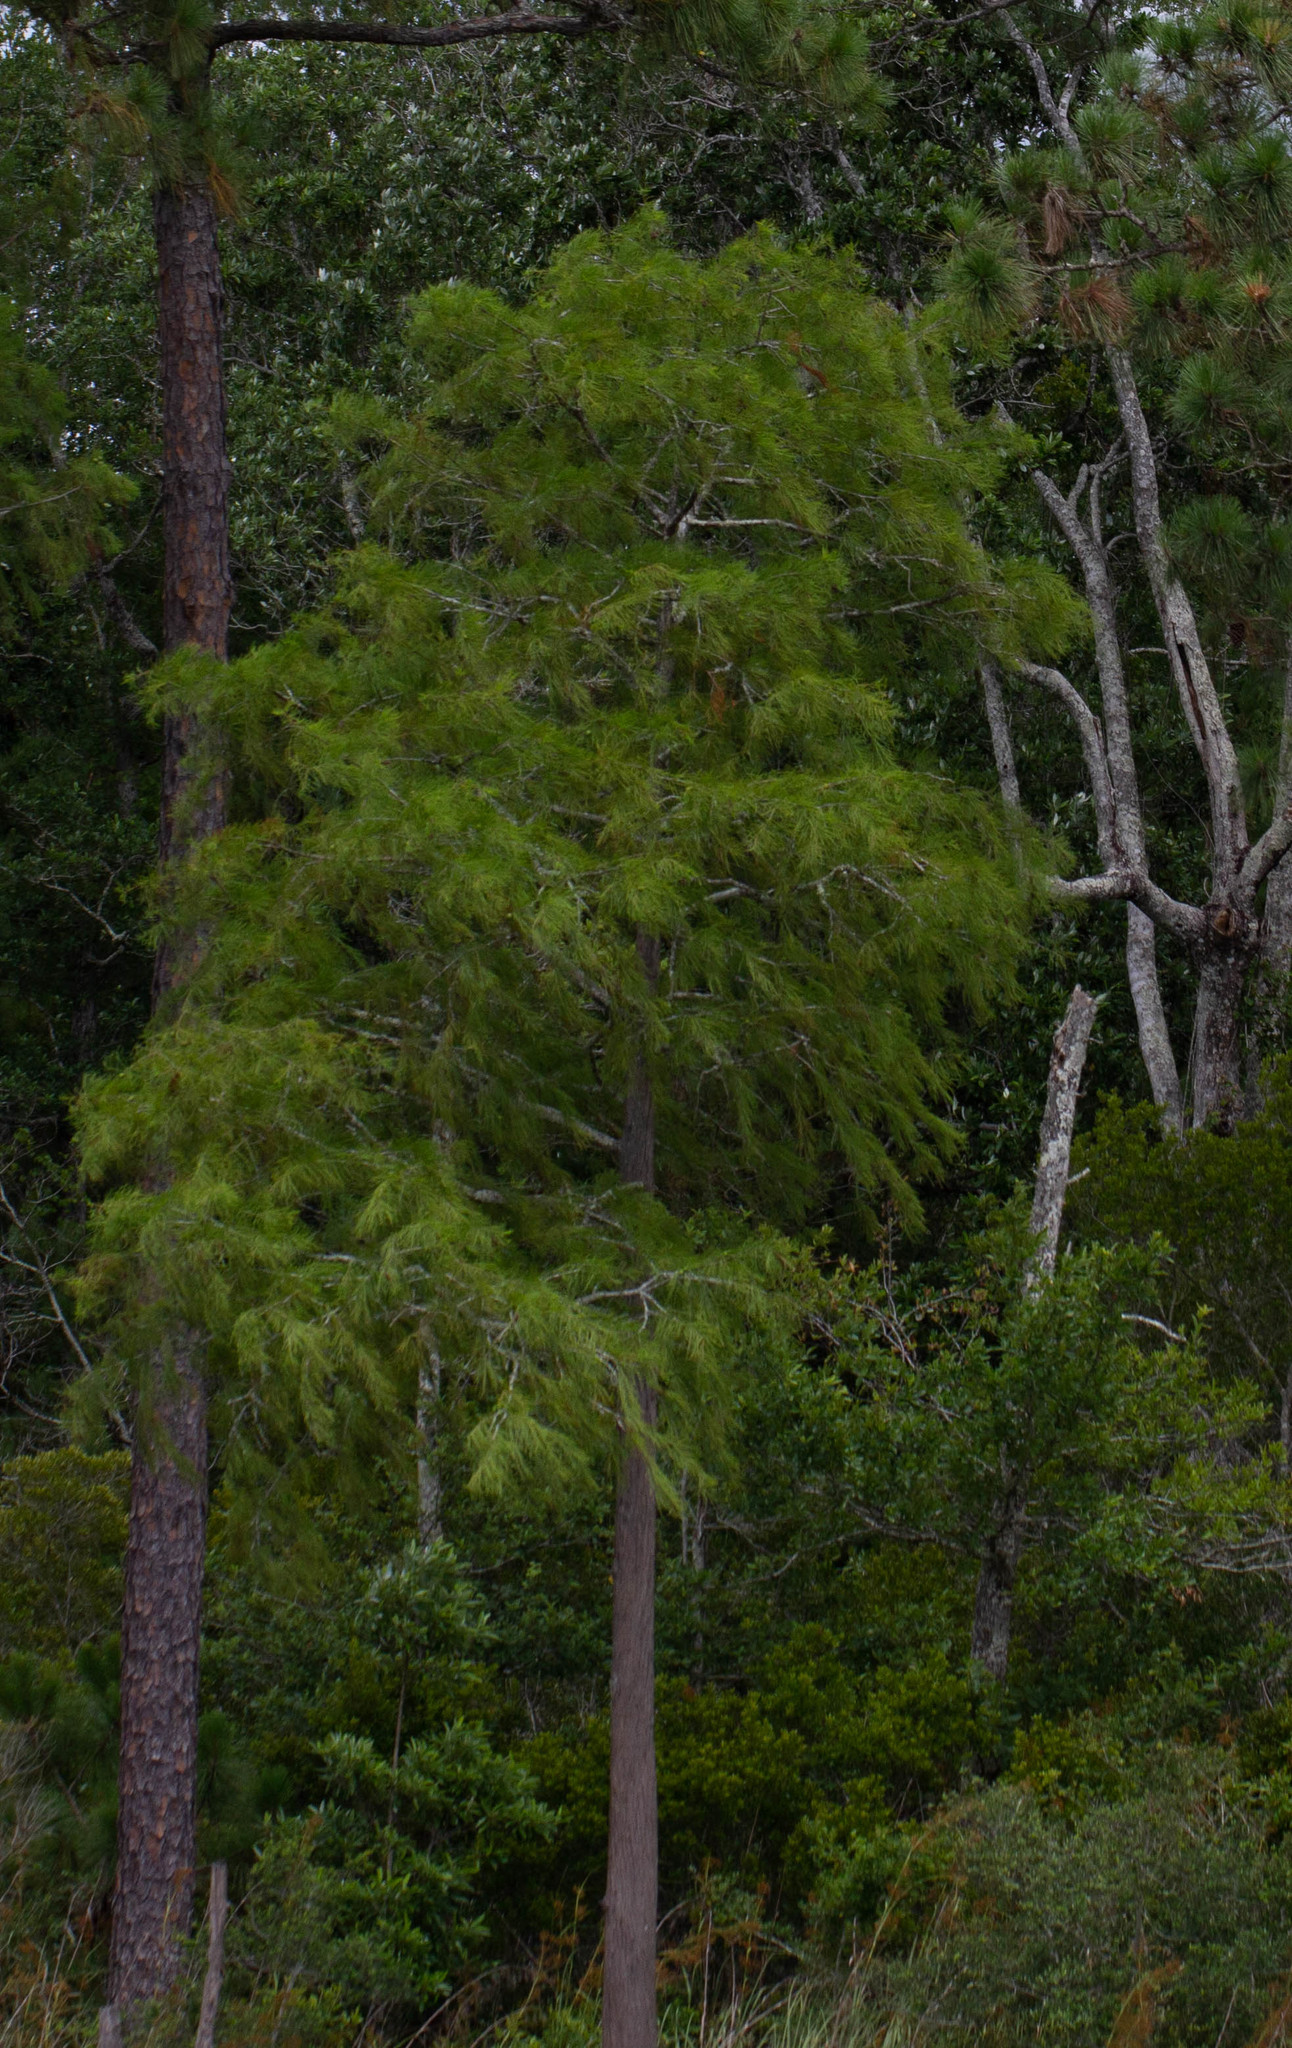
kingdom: Plantae
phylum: Tracheophyta
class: Pinopsida
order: Pinales
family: Cupressaceae
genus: Taxodium
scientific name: Taxodium distichum
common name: Bald cypress
